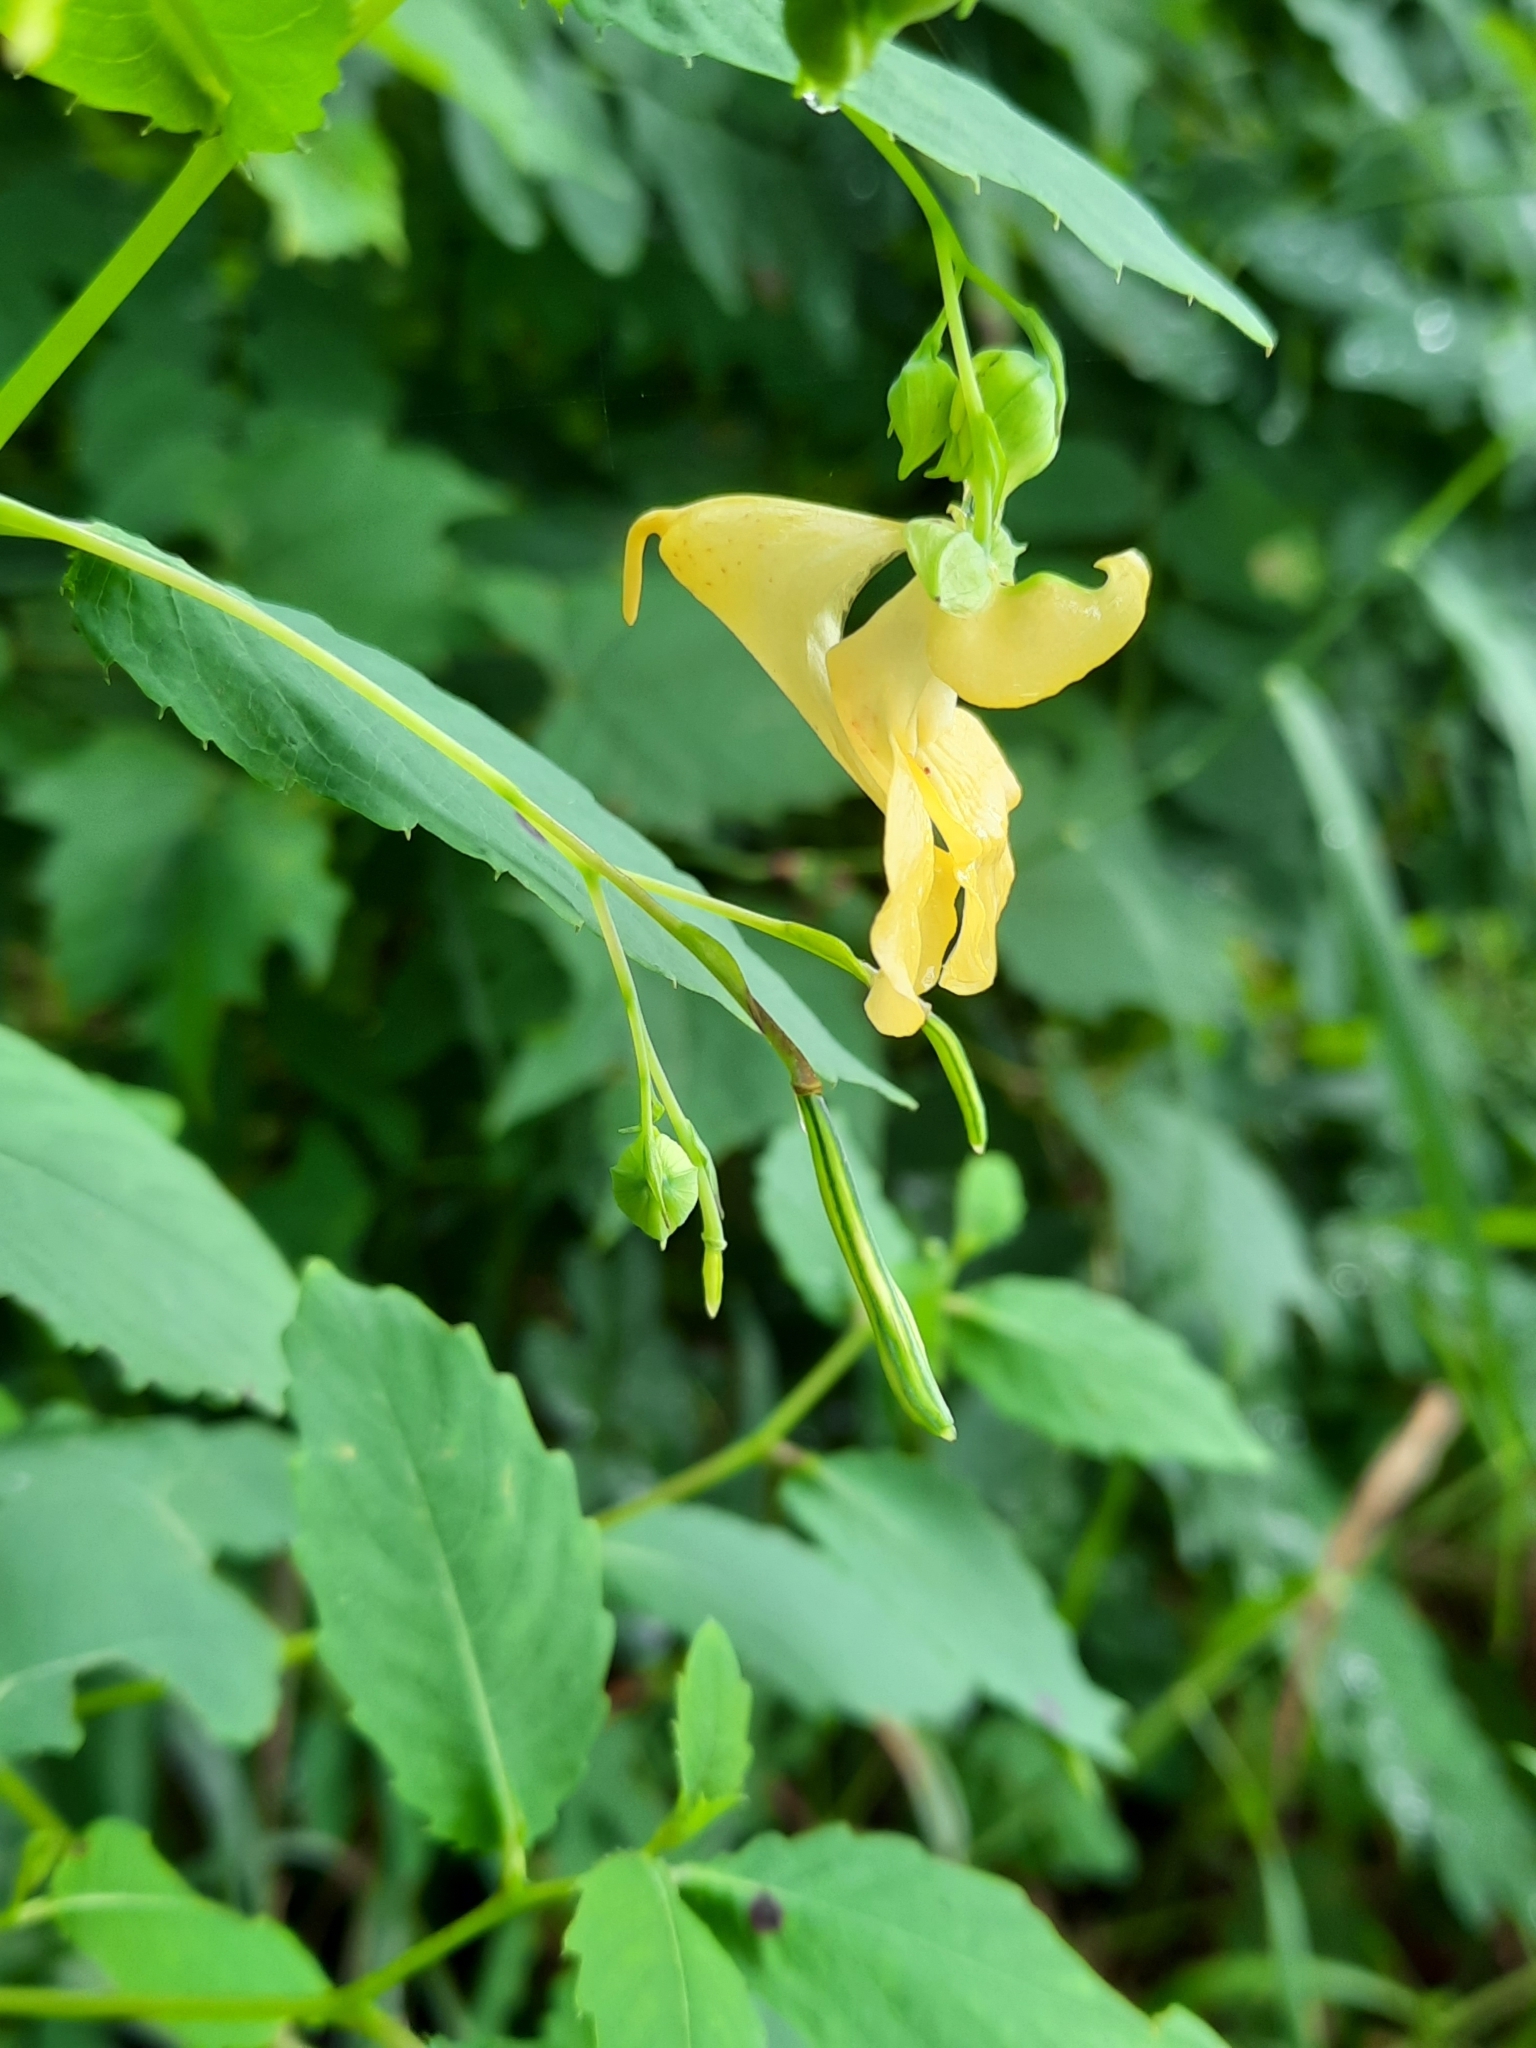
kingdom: Plantae
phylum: Tracheophyta
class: Magnoliopsida
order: Ericales
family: Balsaminaceae
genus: Impatiens
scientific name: Impatiens pallida
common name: Pale snapweed
